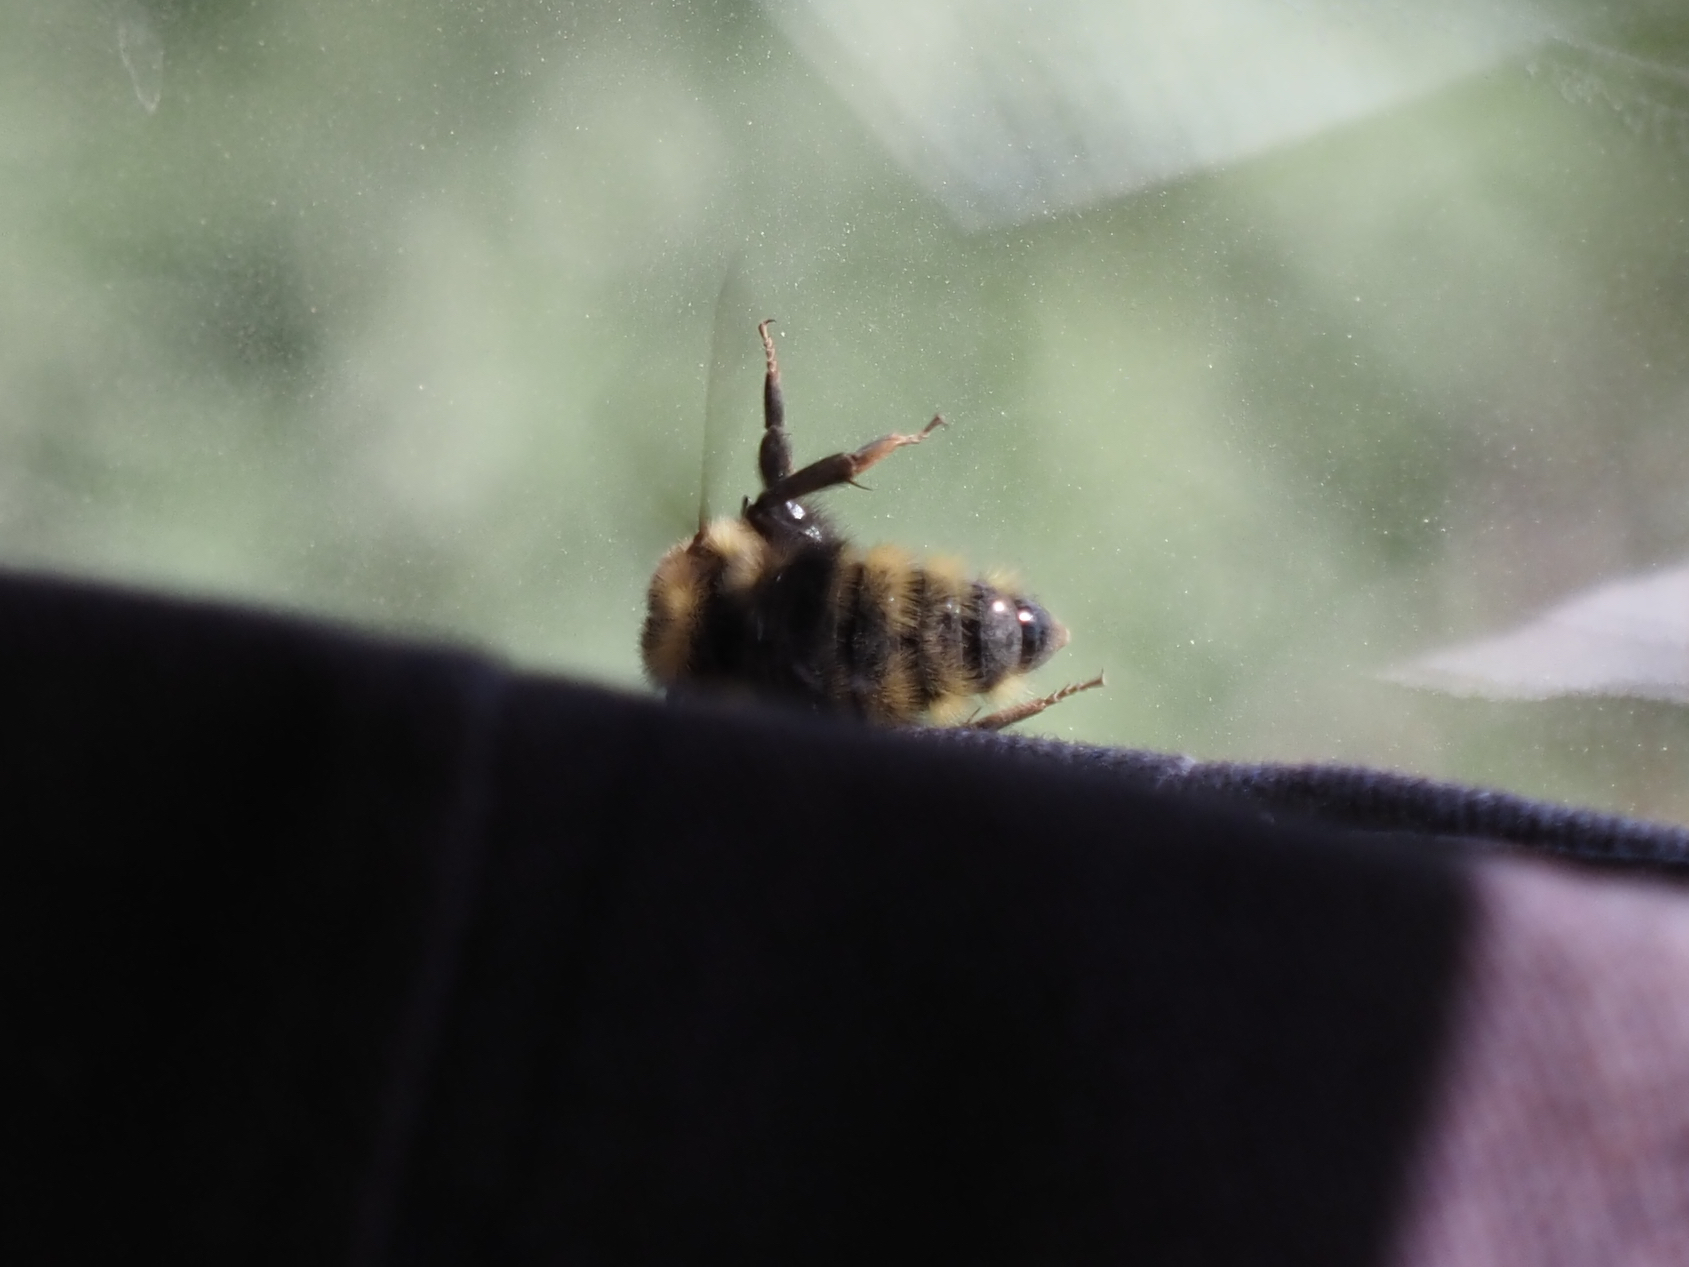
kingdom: Animalia
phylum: Arthropoda
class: Insecta
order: Hymenoptera
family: Apidae
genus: Bombus
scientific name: Bombus insularis
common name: Indiscriminate cuckoo bumble bee
